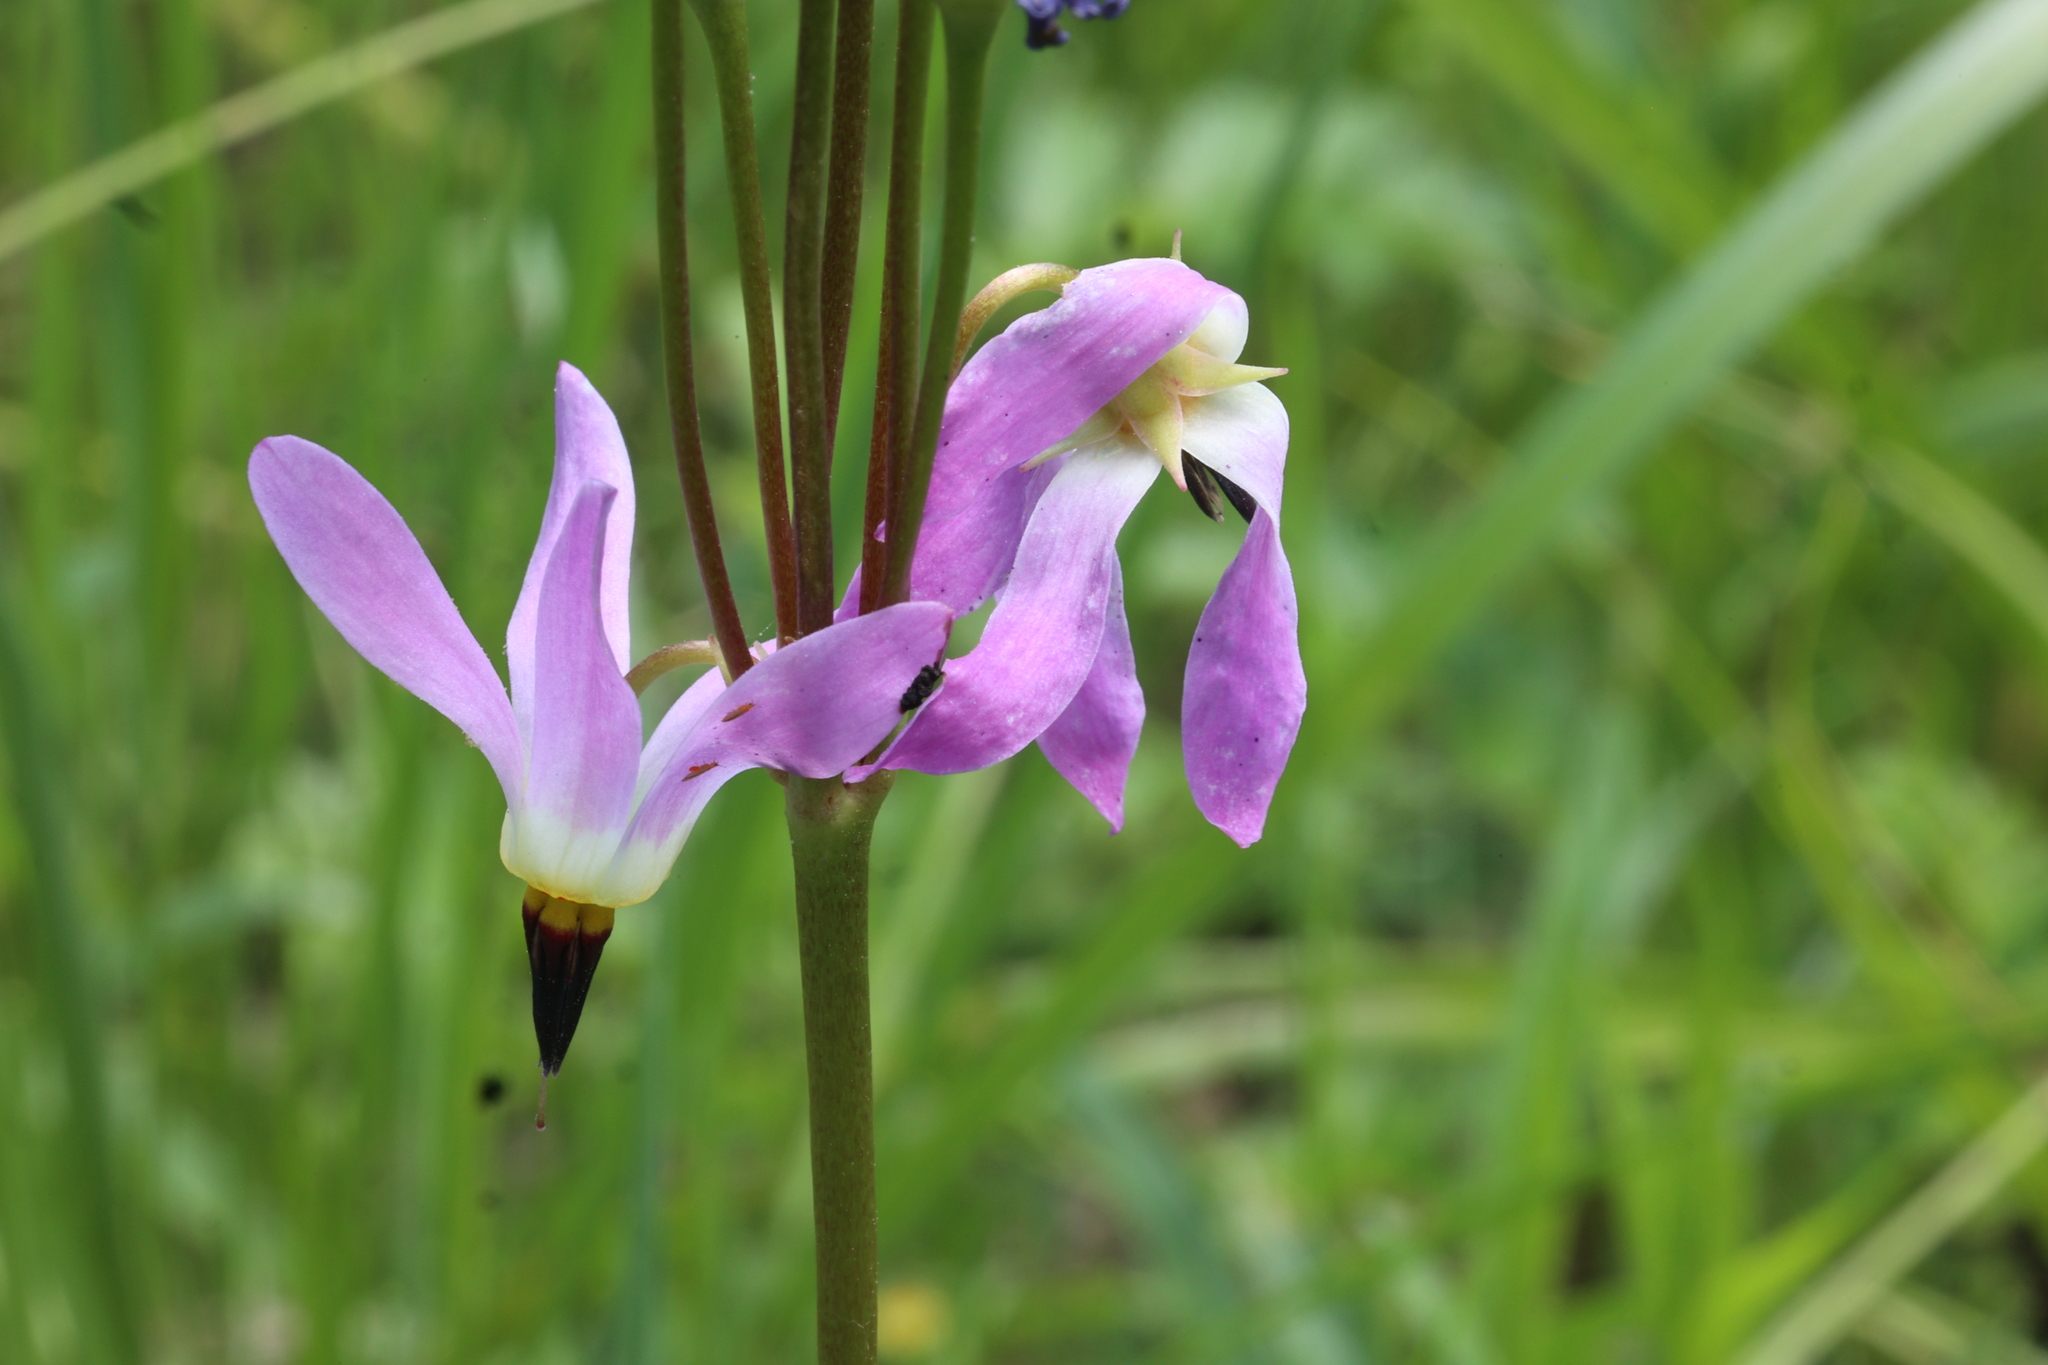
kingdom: Plantae
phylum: Tracheophyta
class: Magnoliopsida
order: Ericales
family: Primulaceae
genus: Dodecatheon
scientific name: Dodecatheon pulchellum
